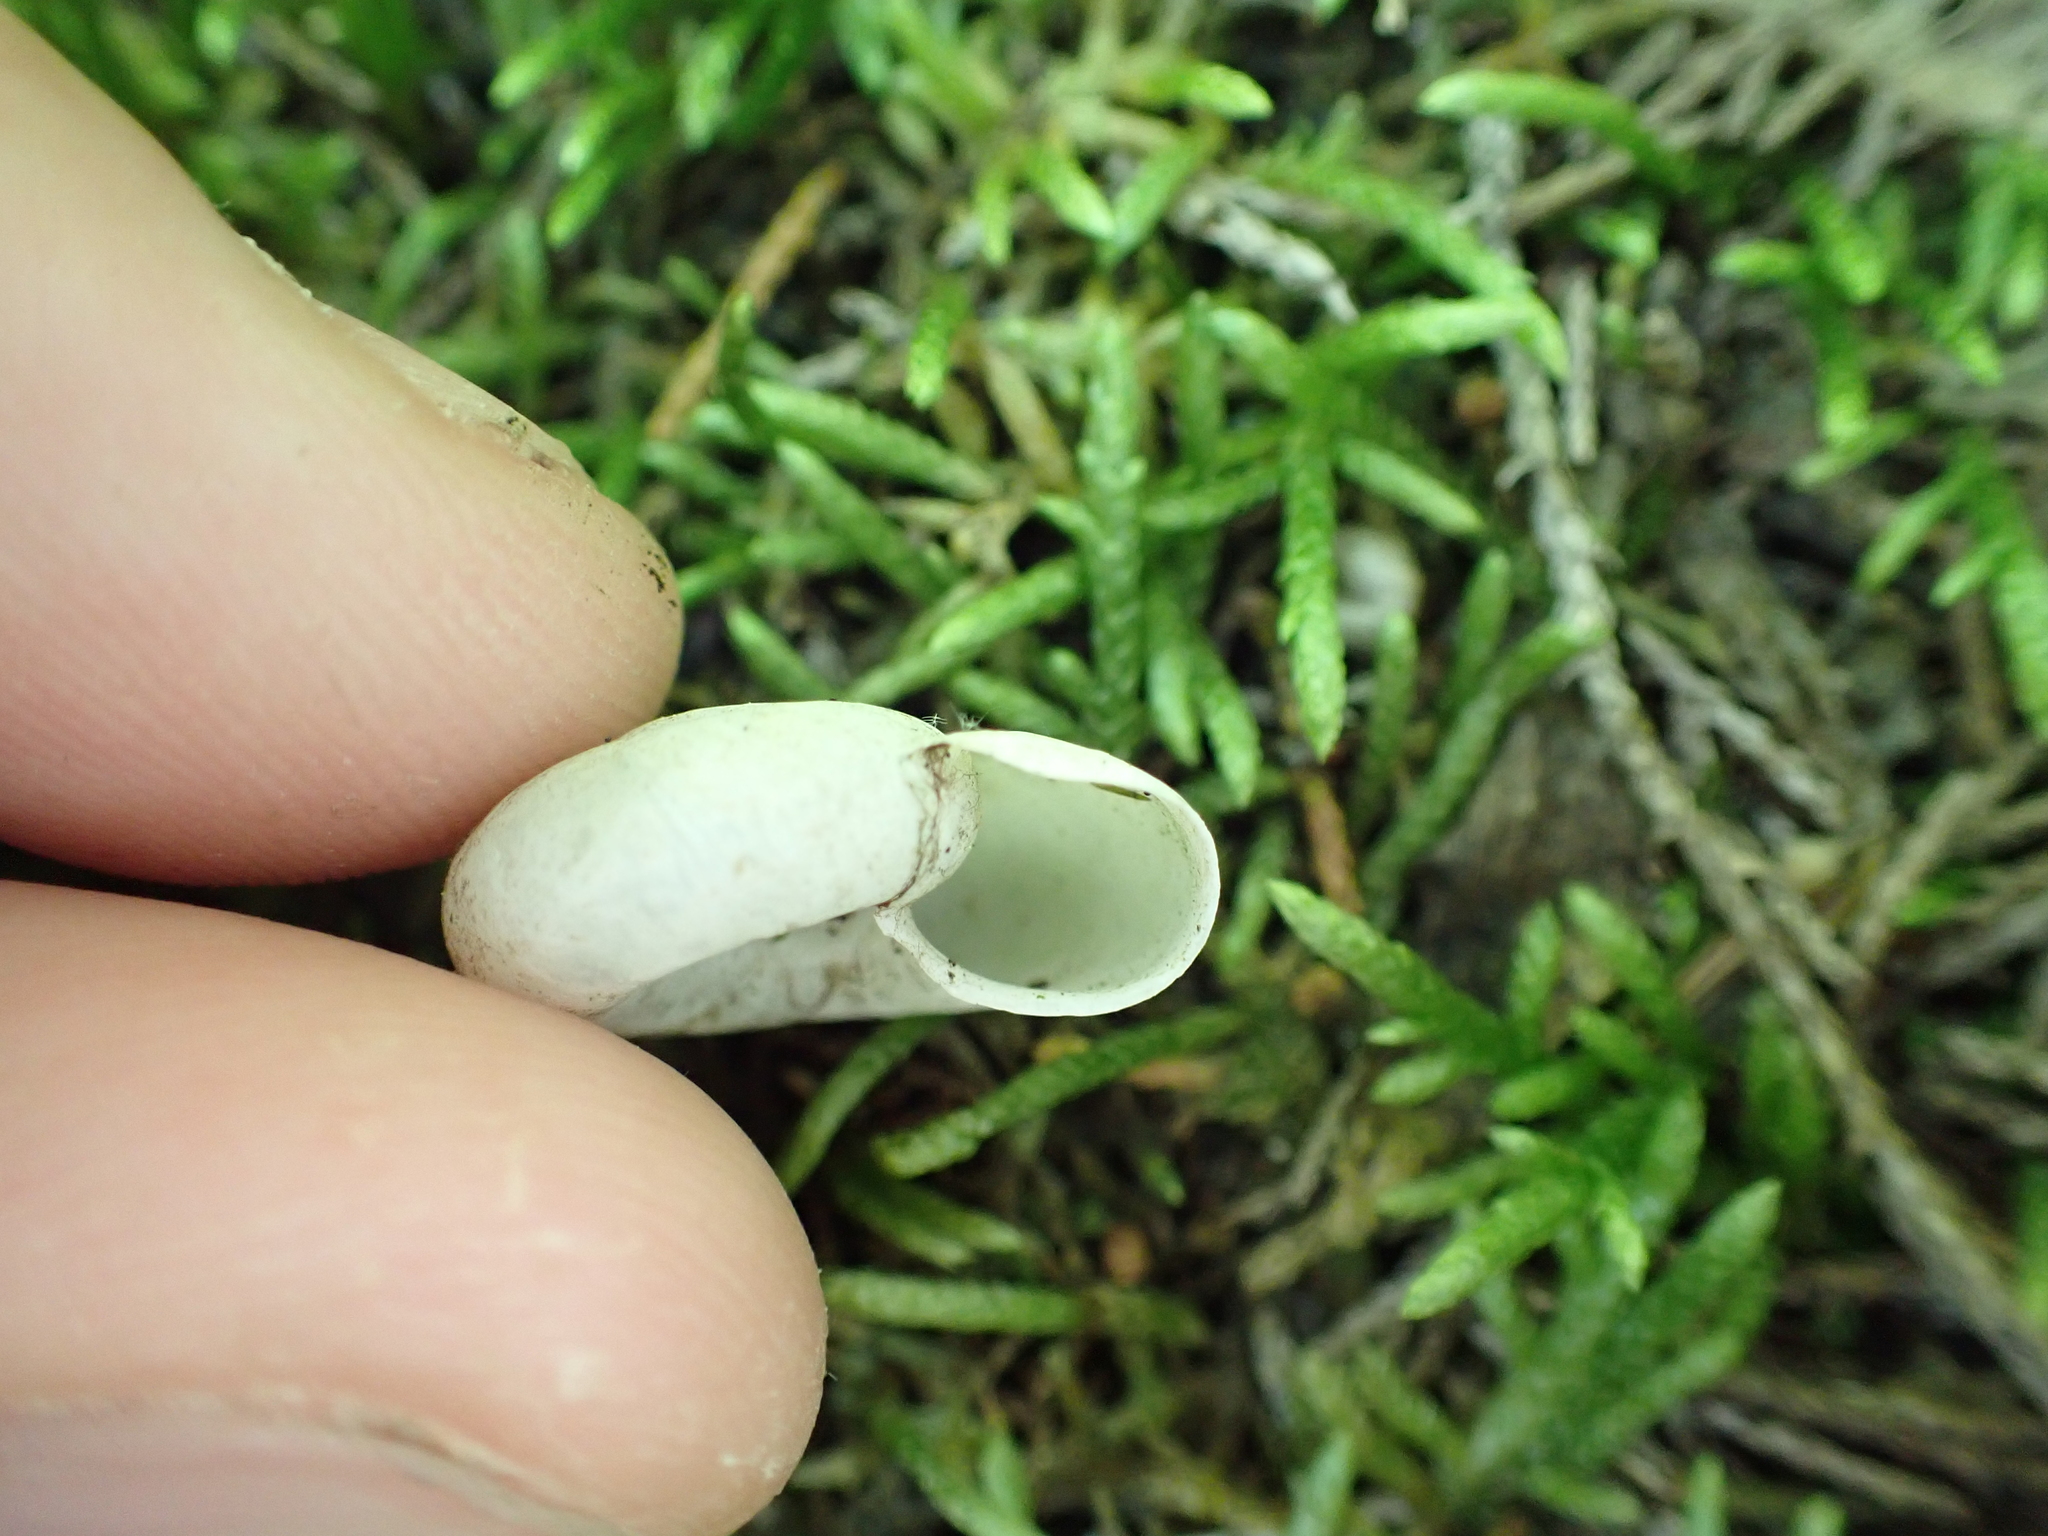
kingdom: Animalia
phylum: Mollusca
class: Gastropoda
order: Stylommatophora
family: Haplotrematidae
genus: Haplotrema
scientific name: Haplotrema concavum
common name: Gray-foot lancetooth
